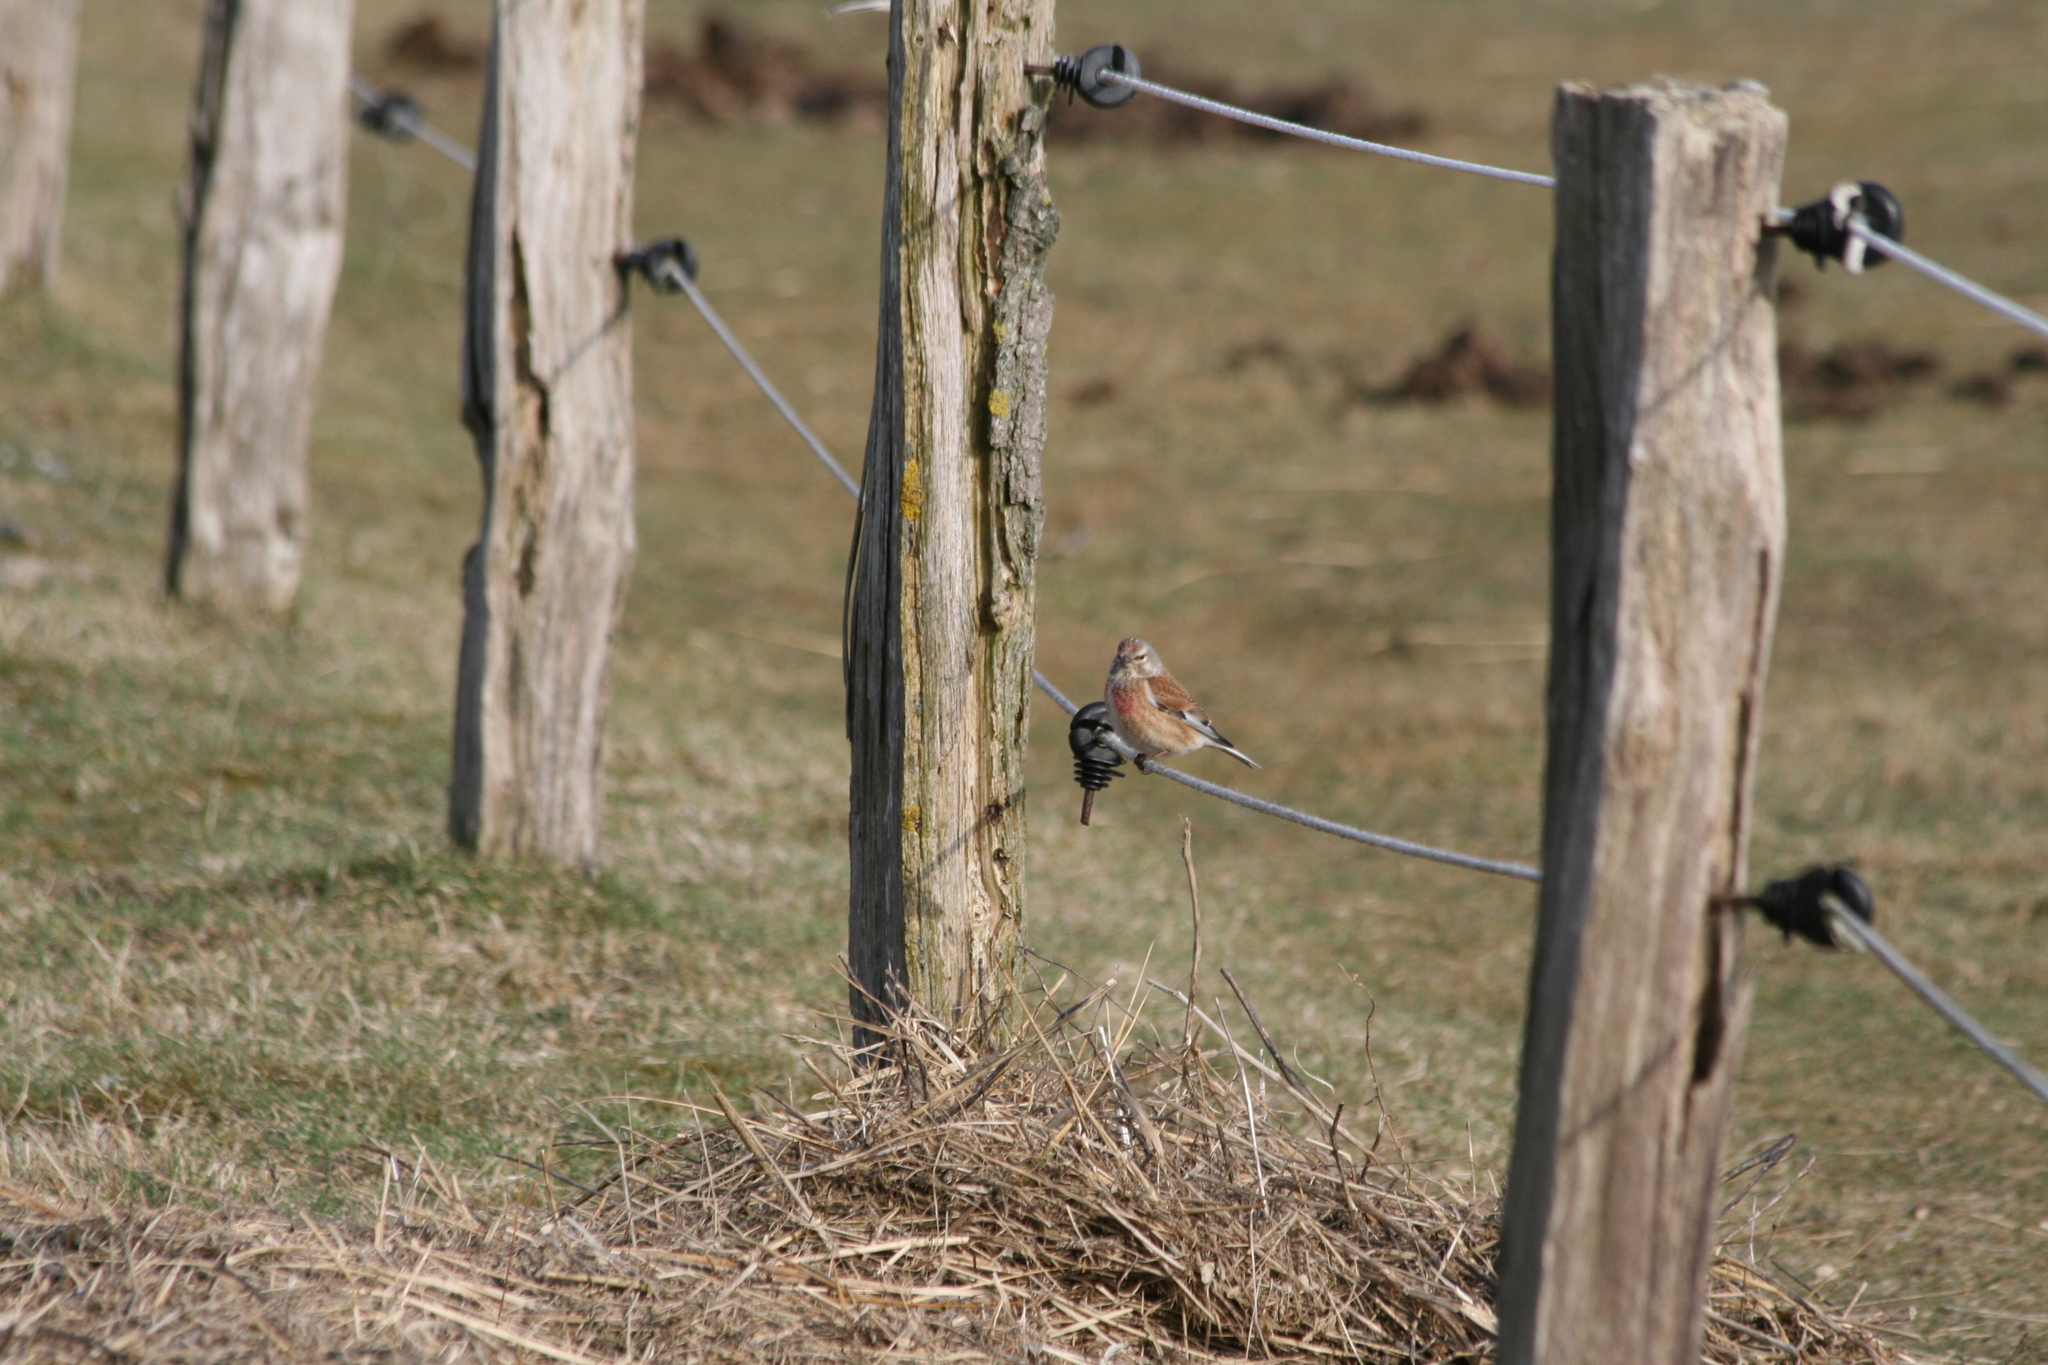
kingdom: Animalia
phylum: Chordata
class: Aves
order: Passeriformes
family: Fringillidae
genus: Linaria
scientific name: Linaria cannabina
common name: Common linnet
